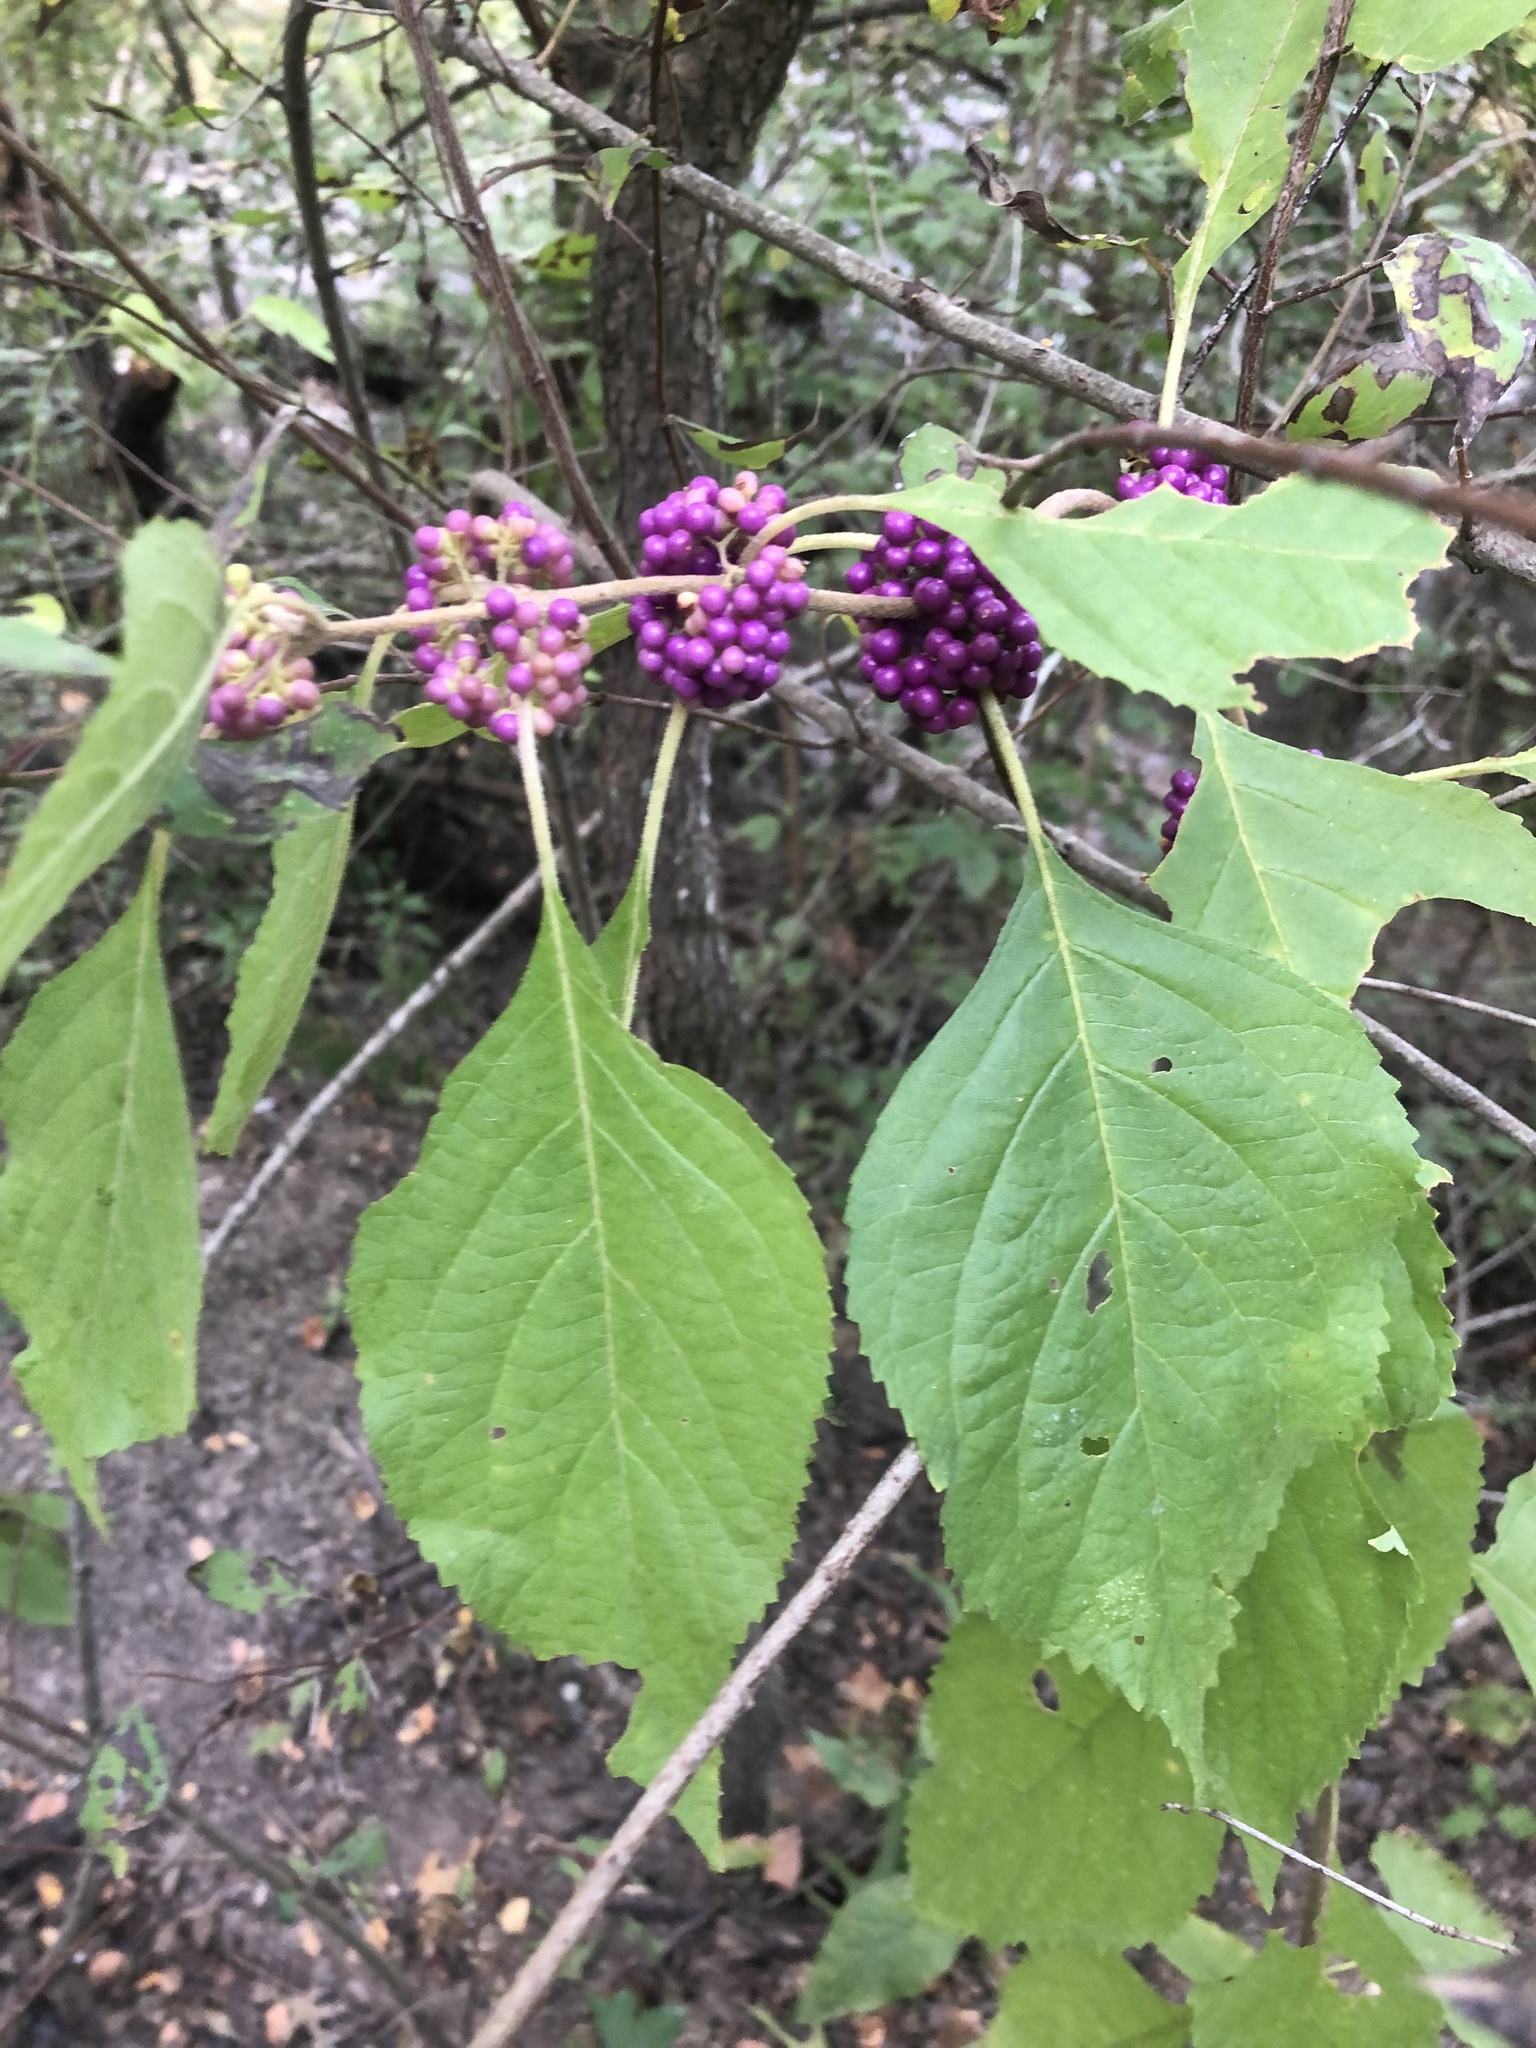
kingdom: Plantae
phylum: Tracheophyta
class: Magnoliopsida
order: Lamiales
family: Lamiaceae
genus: Callicarpa
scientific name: Callicarpa americana
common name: American beautyberry
